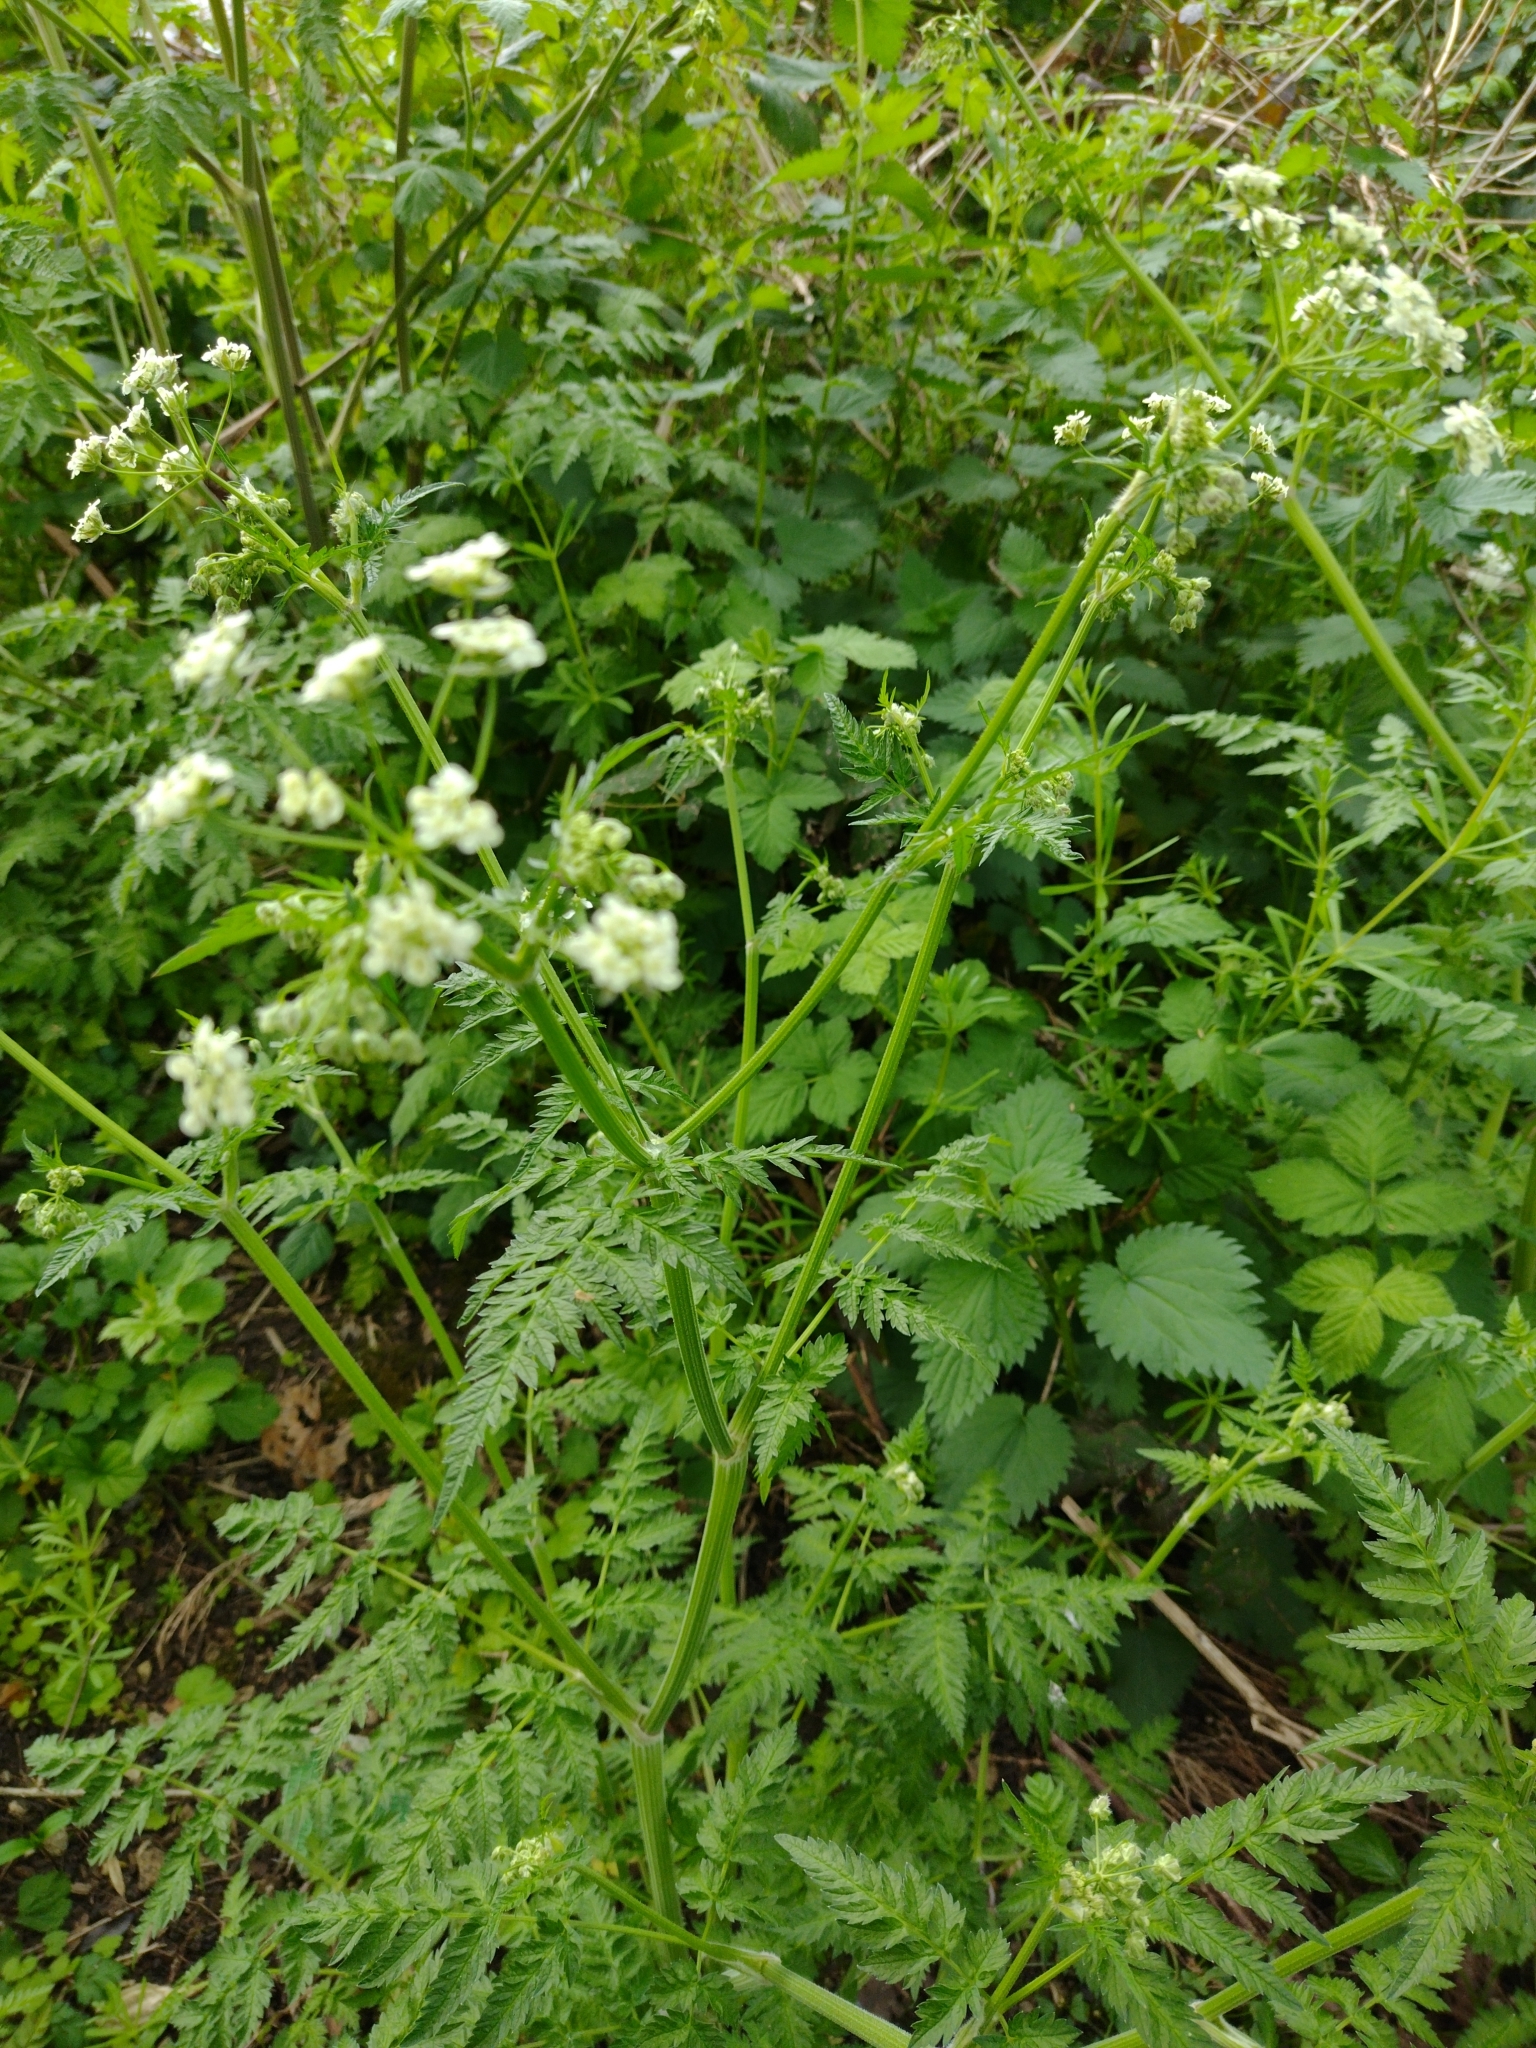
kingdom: Plantae
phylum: Tracheophyta
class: Magnoliopsida
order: Apiales
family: Apiaceae
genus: Anthriscus
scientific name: Anthriscus sylvestris
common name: Cow parsley
